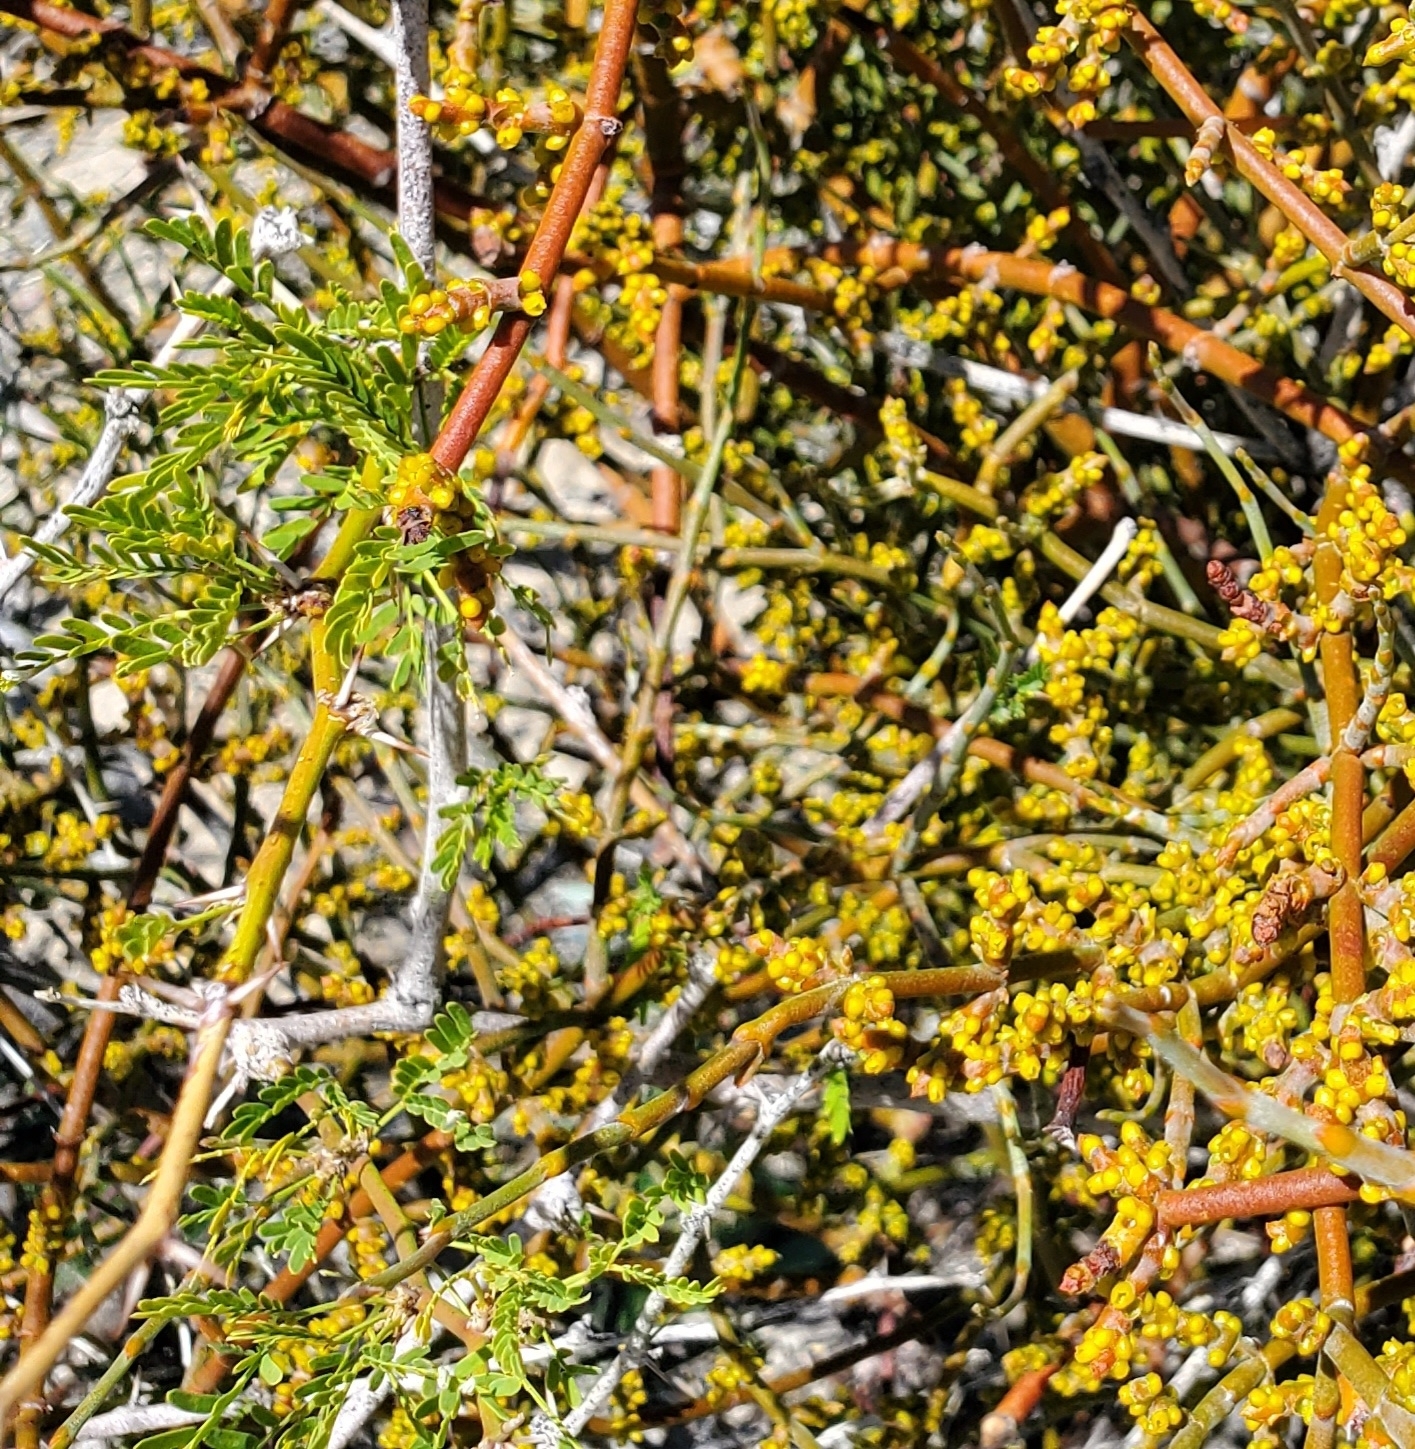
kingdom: Plantae
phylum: Tracheophyta
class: Magnoliopsida
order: Santalales
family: Viscaceae
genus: Phoradendron
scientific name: Phoradendron californicum
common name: Acacia mistletoe
